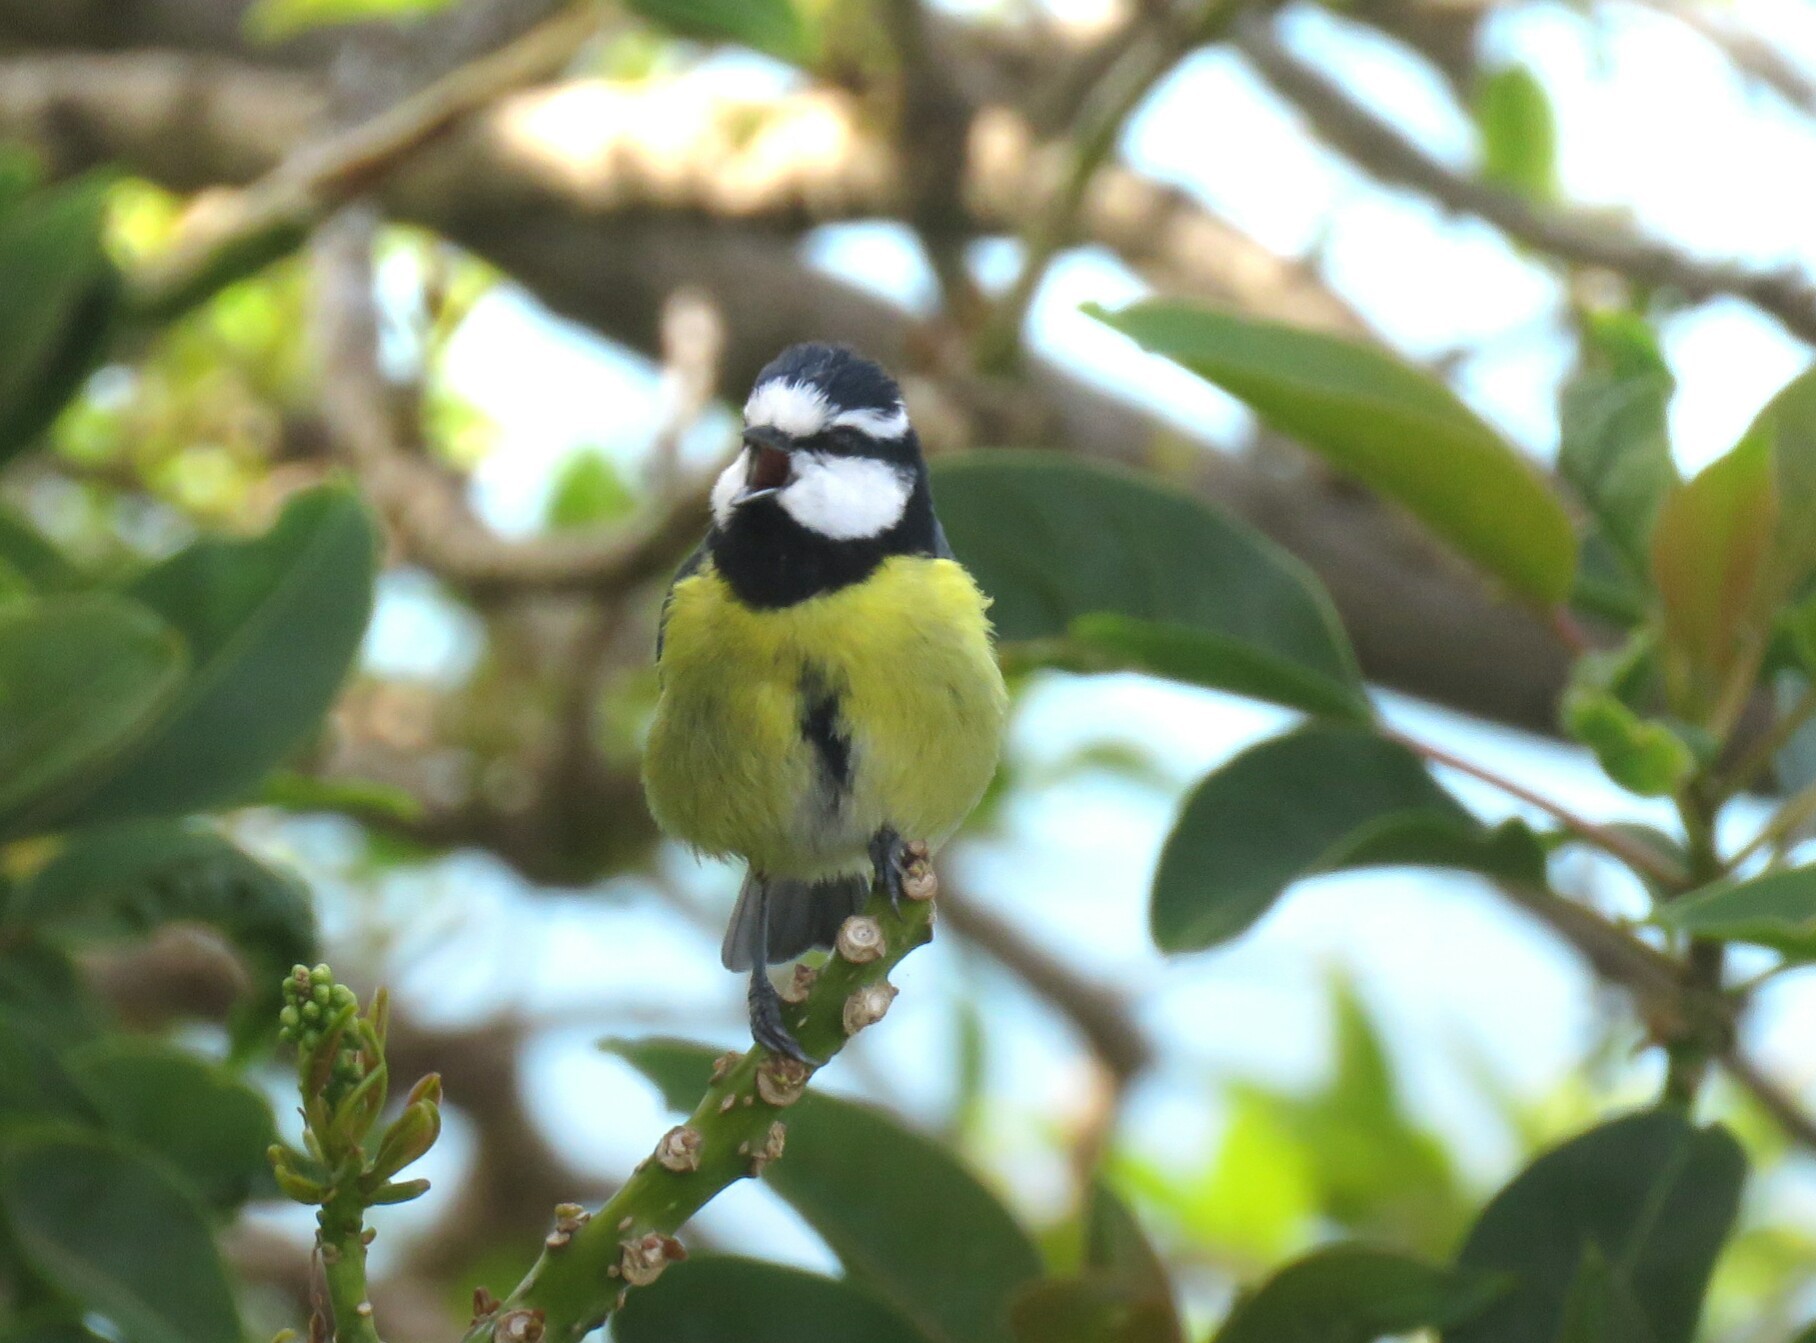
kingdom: Animalia
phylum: Chordata
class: Aves
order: Passeriformes
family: Paridae
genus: Cyanistes
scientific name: Cyanistes teneriffae
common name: African blue tit
